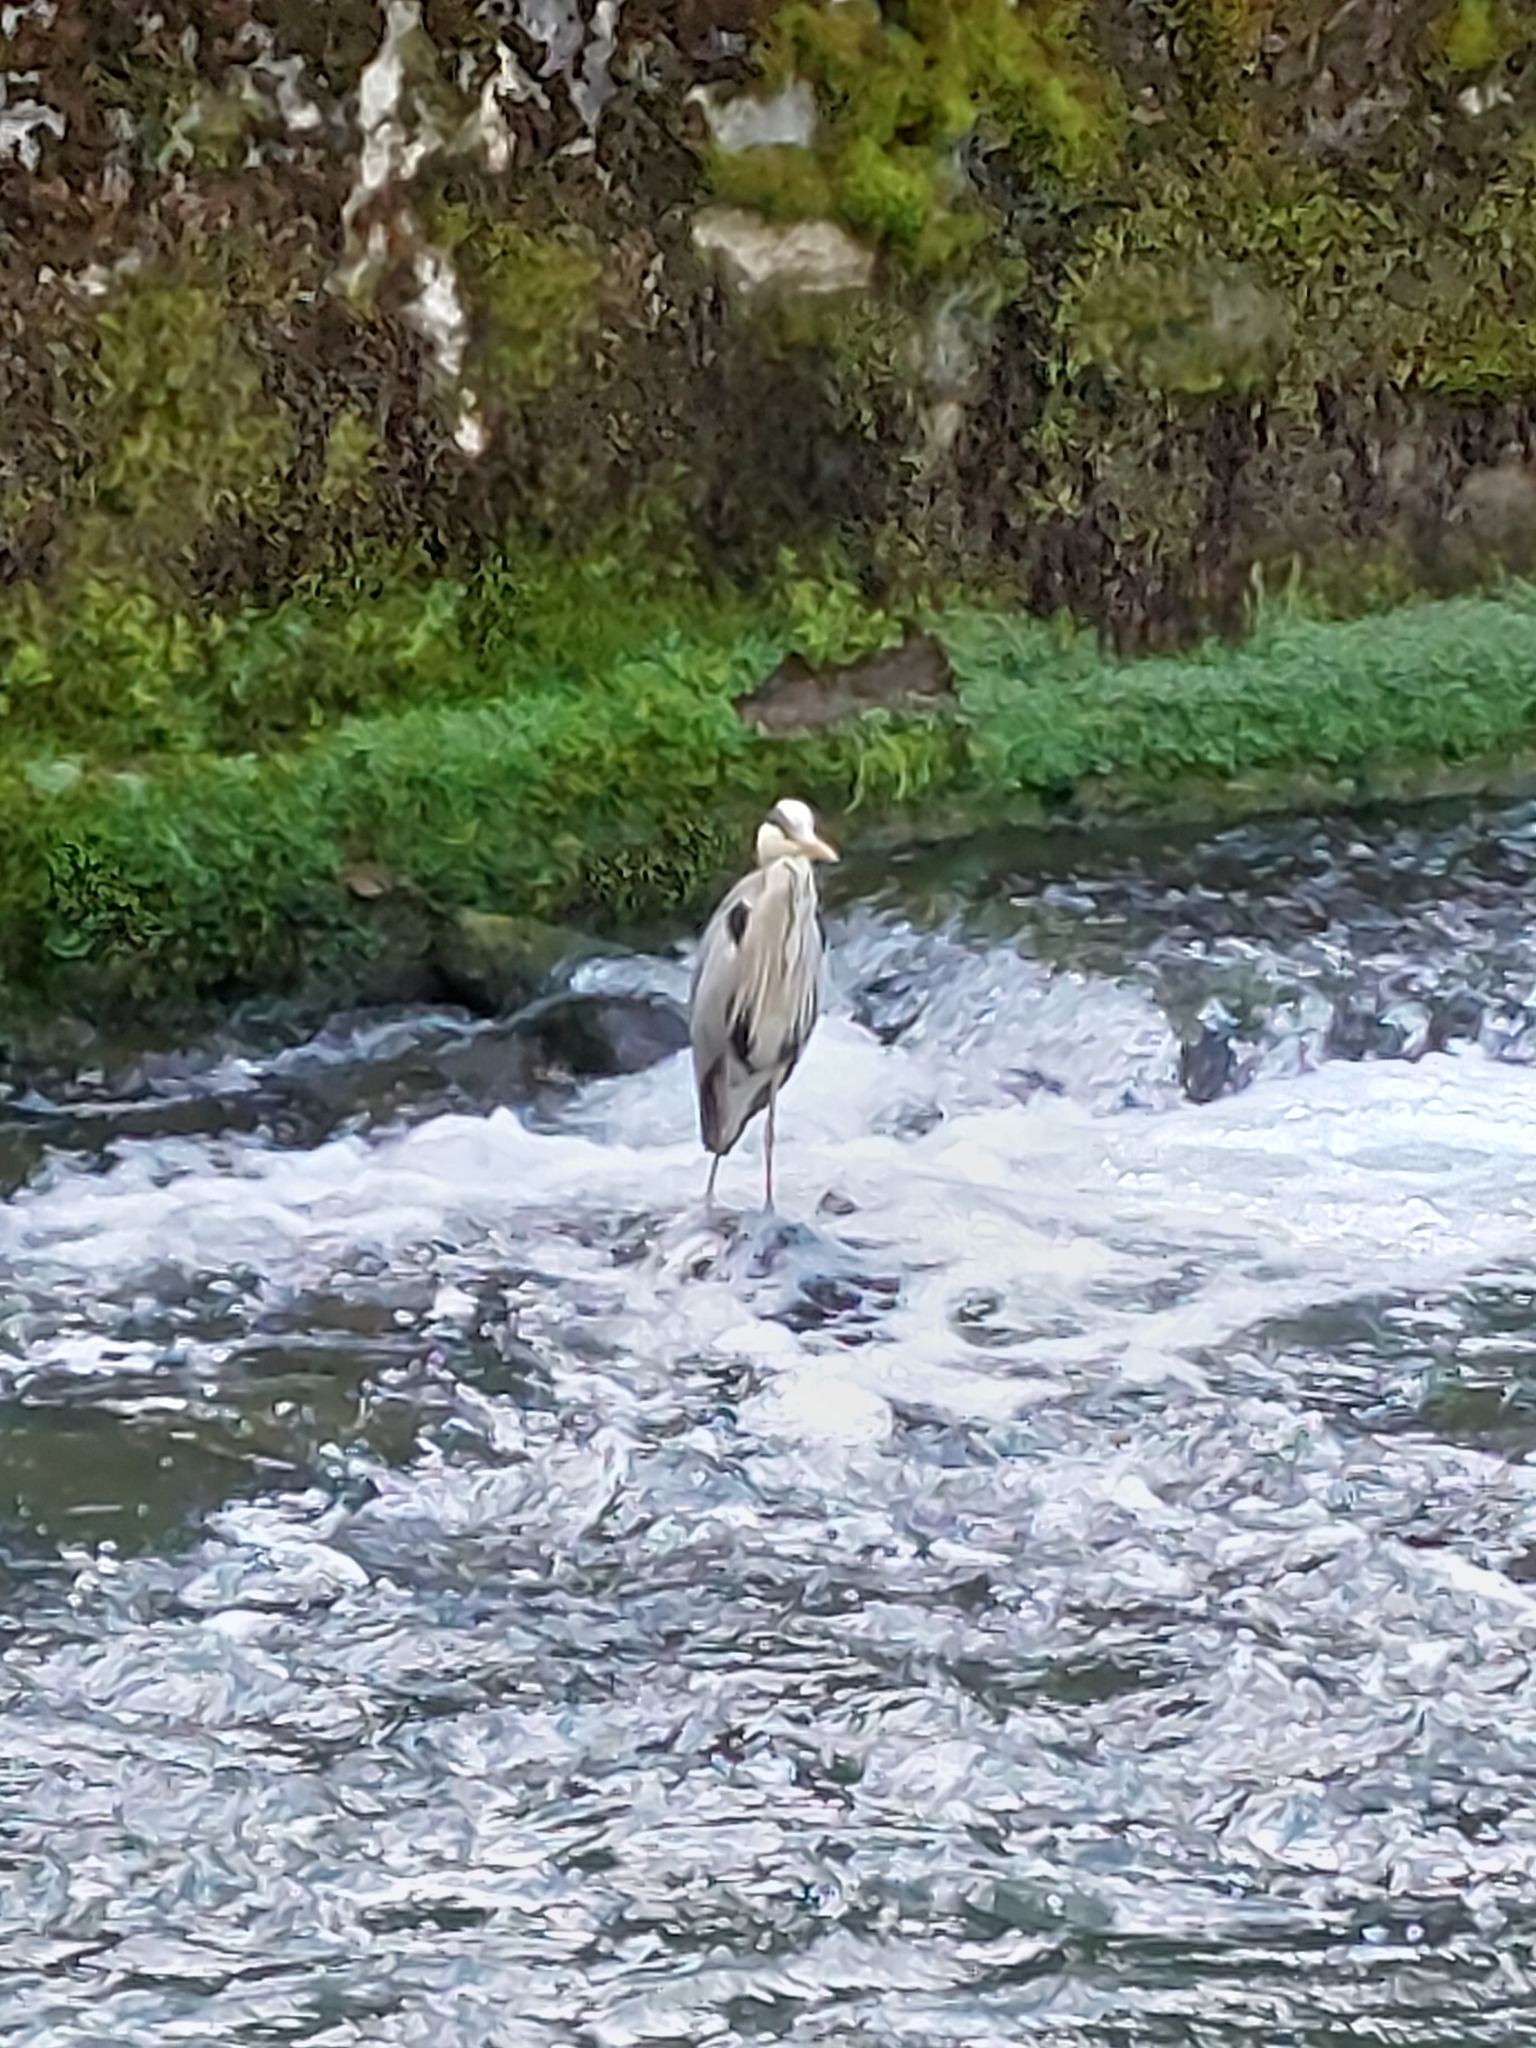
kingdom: Animalia
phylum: Chordata
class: Aves
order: Pelecaniformes
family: Ardeidae
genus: Ardea
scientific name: Ardea cinerea
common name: Grey heron
